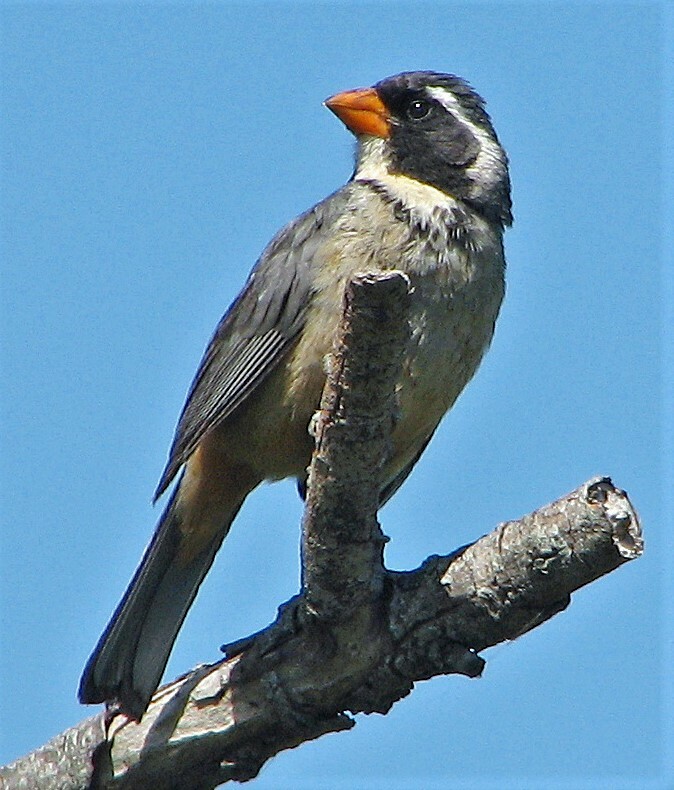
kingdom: Animalia
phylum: Chordata
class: Aves
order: Passeriformes
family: Thraupidae
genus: Saltator
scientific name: Saltator aurantiirostris
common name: Golden-billed saltator
